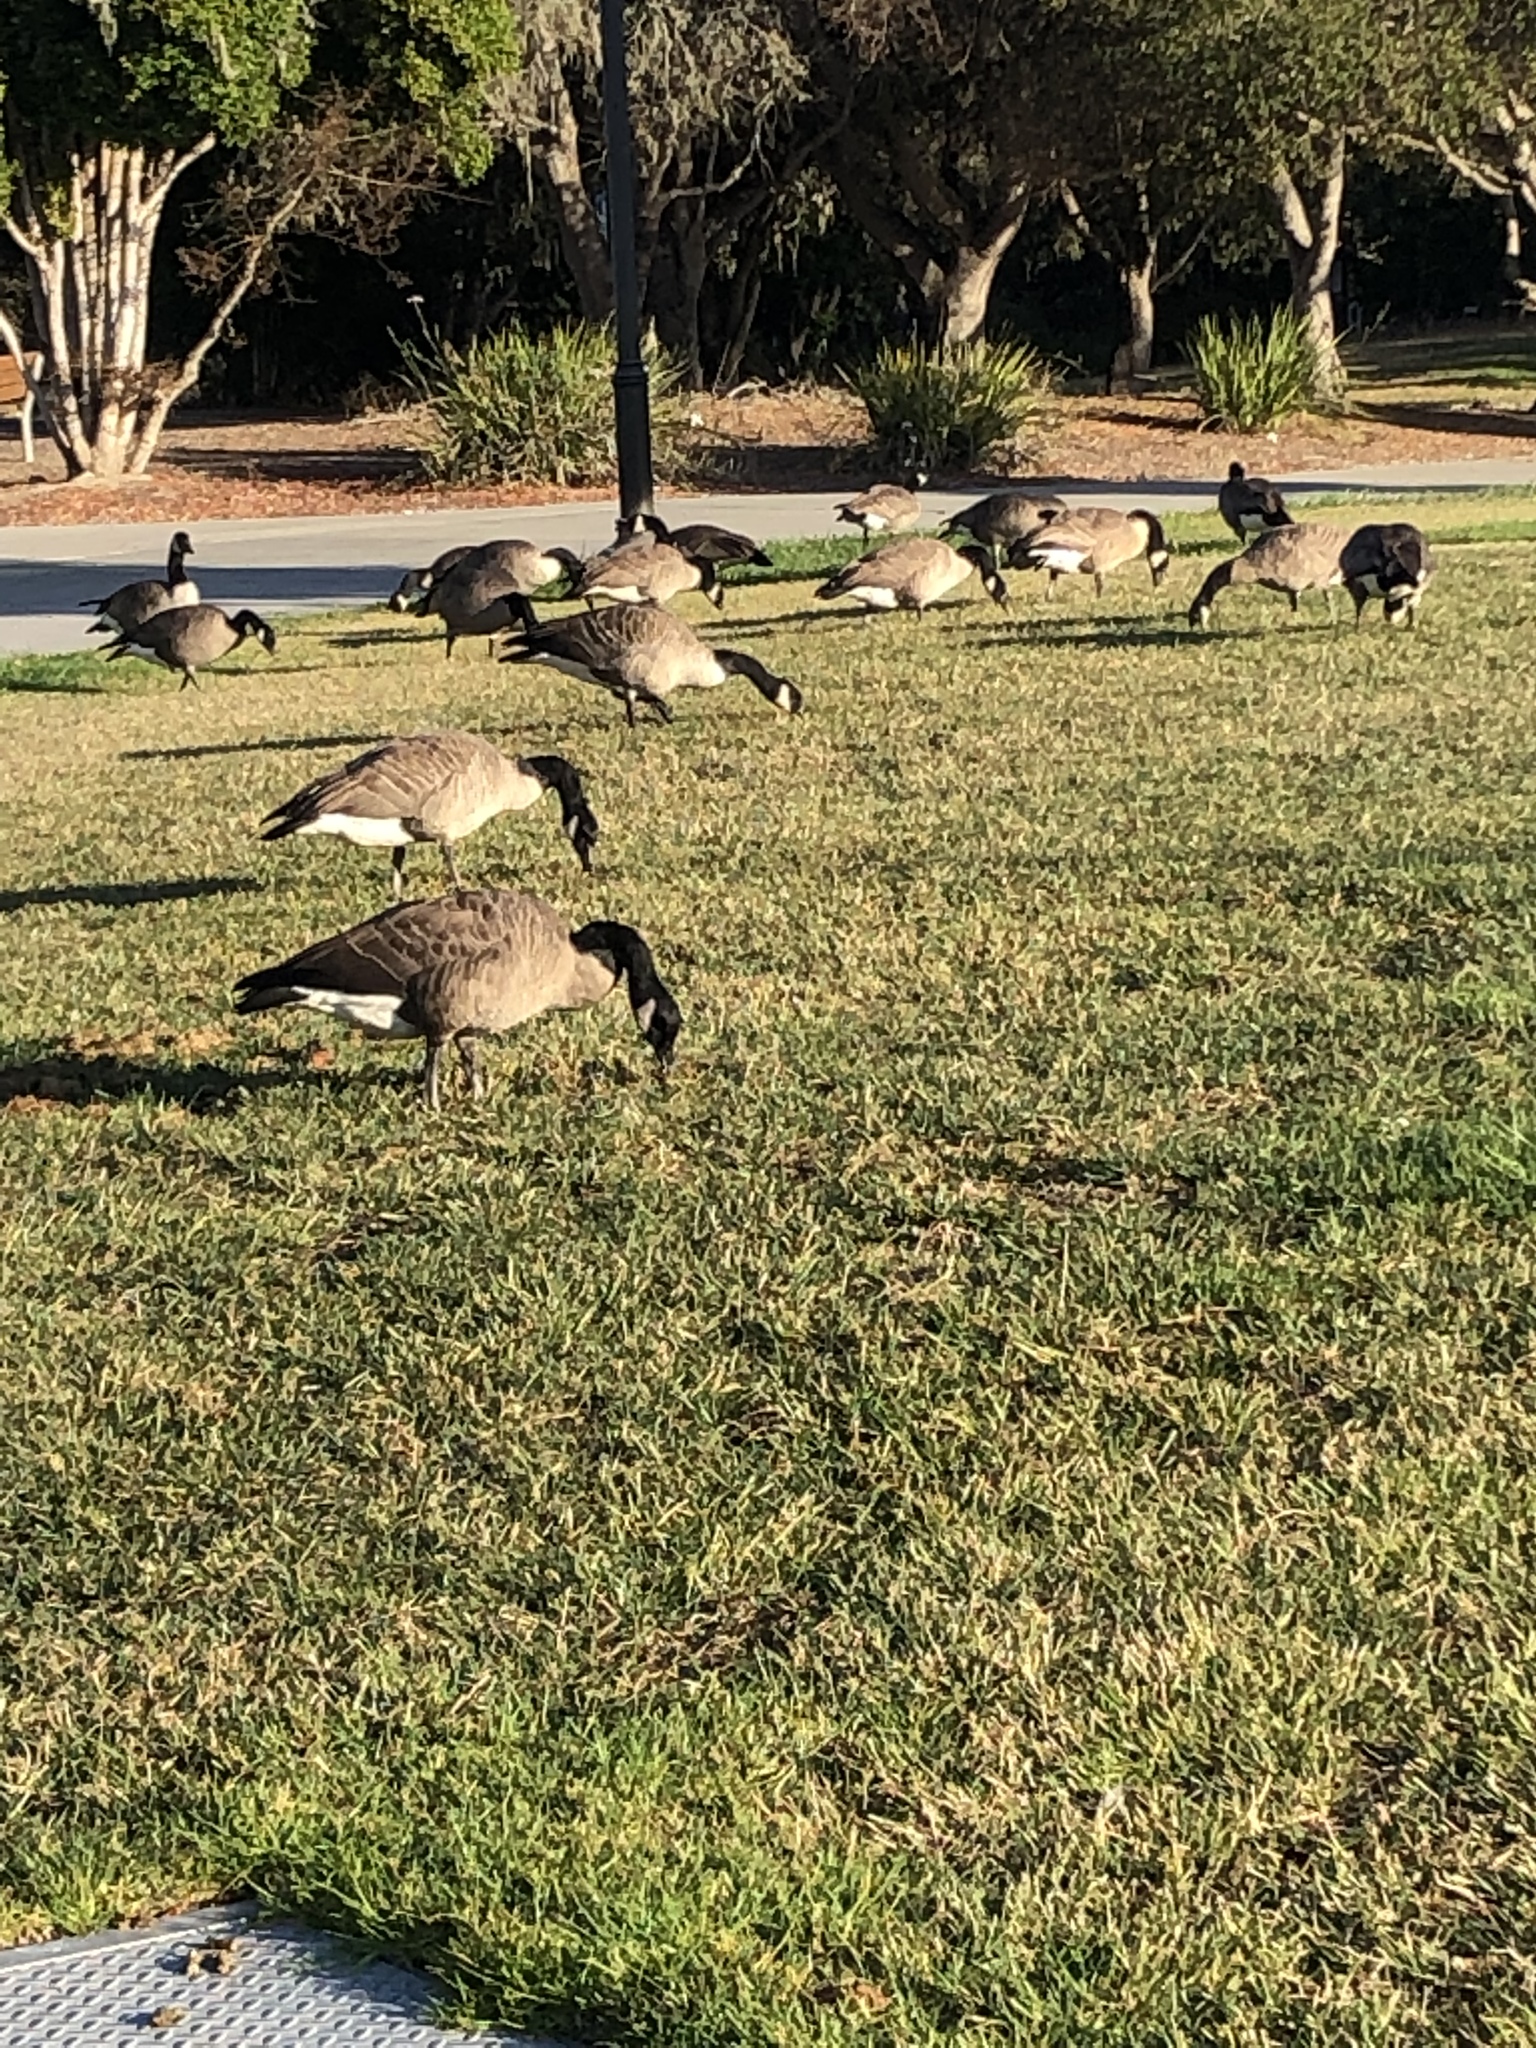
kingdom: Animalia
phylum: Chordata
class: Aves
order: Anseriformes
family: Anatidae
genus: Branta
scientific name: Branta canadensis
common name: Canada goose
